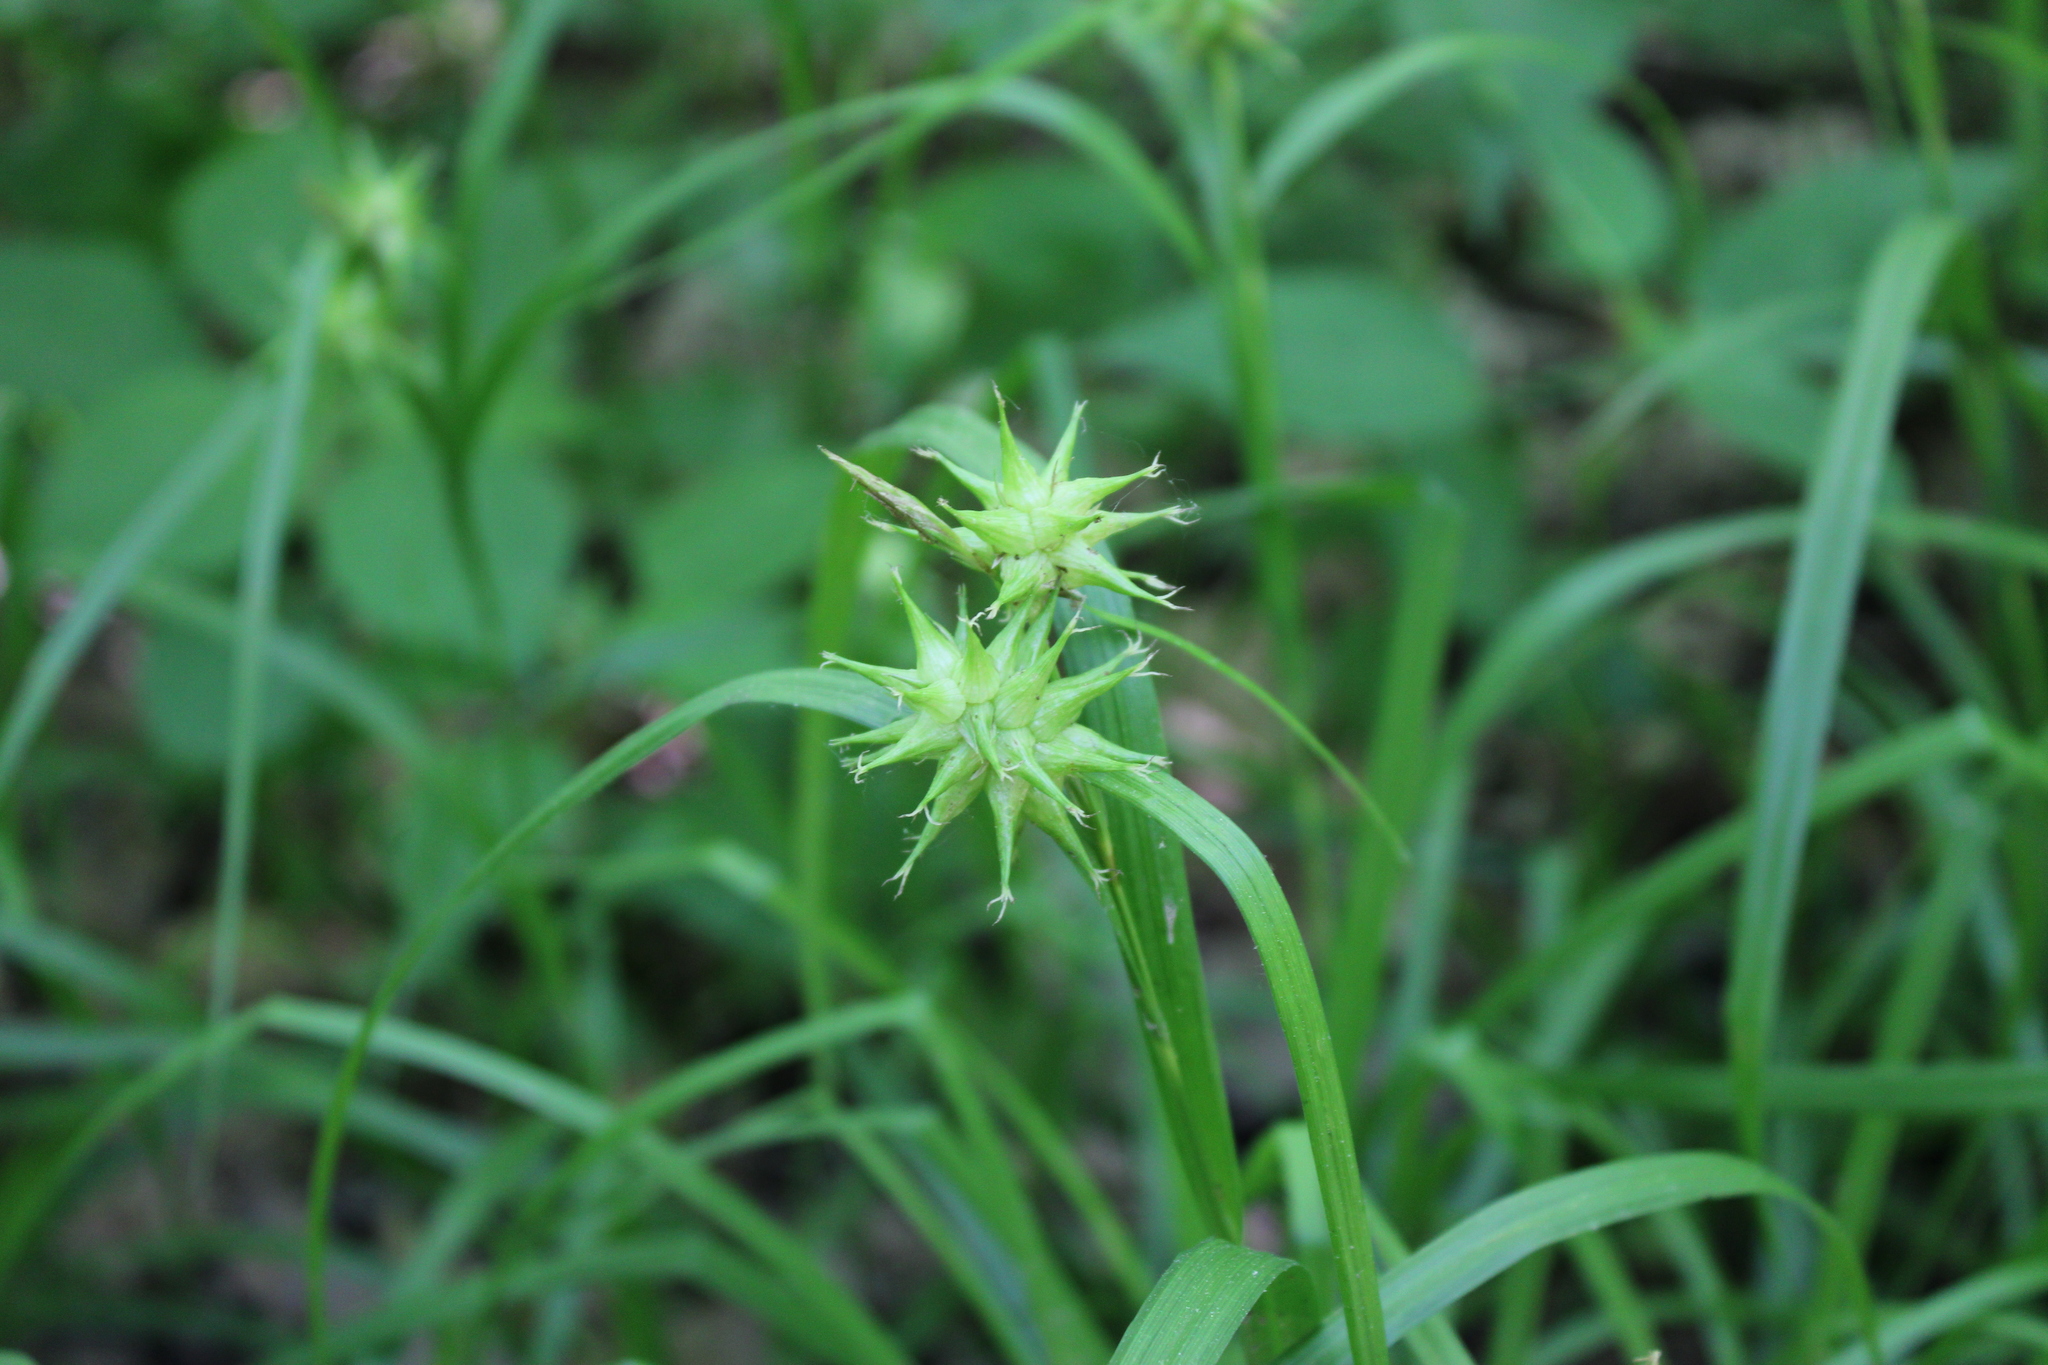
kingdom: Plantae
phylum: Tracheophyta
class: Liliopsida
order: Poales
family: Cyperaceae
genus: Carex
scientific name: Carex grayi
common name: Asa gray's sedge
